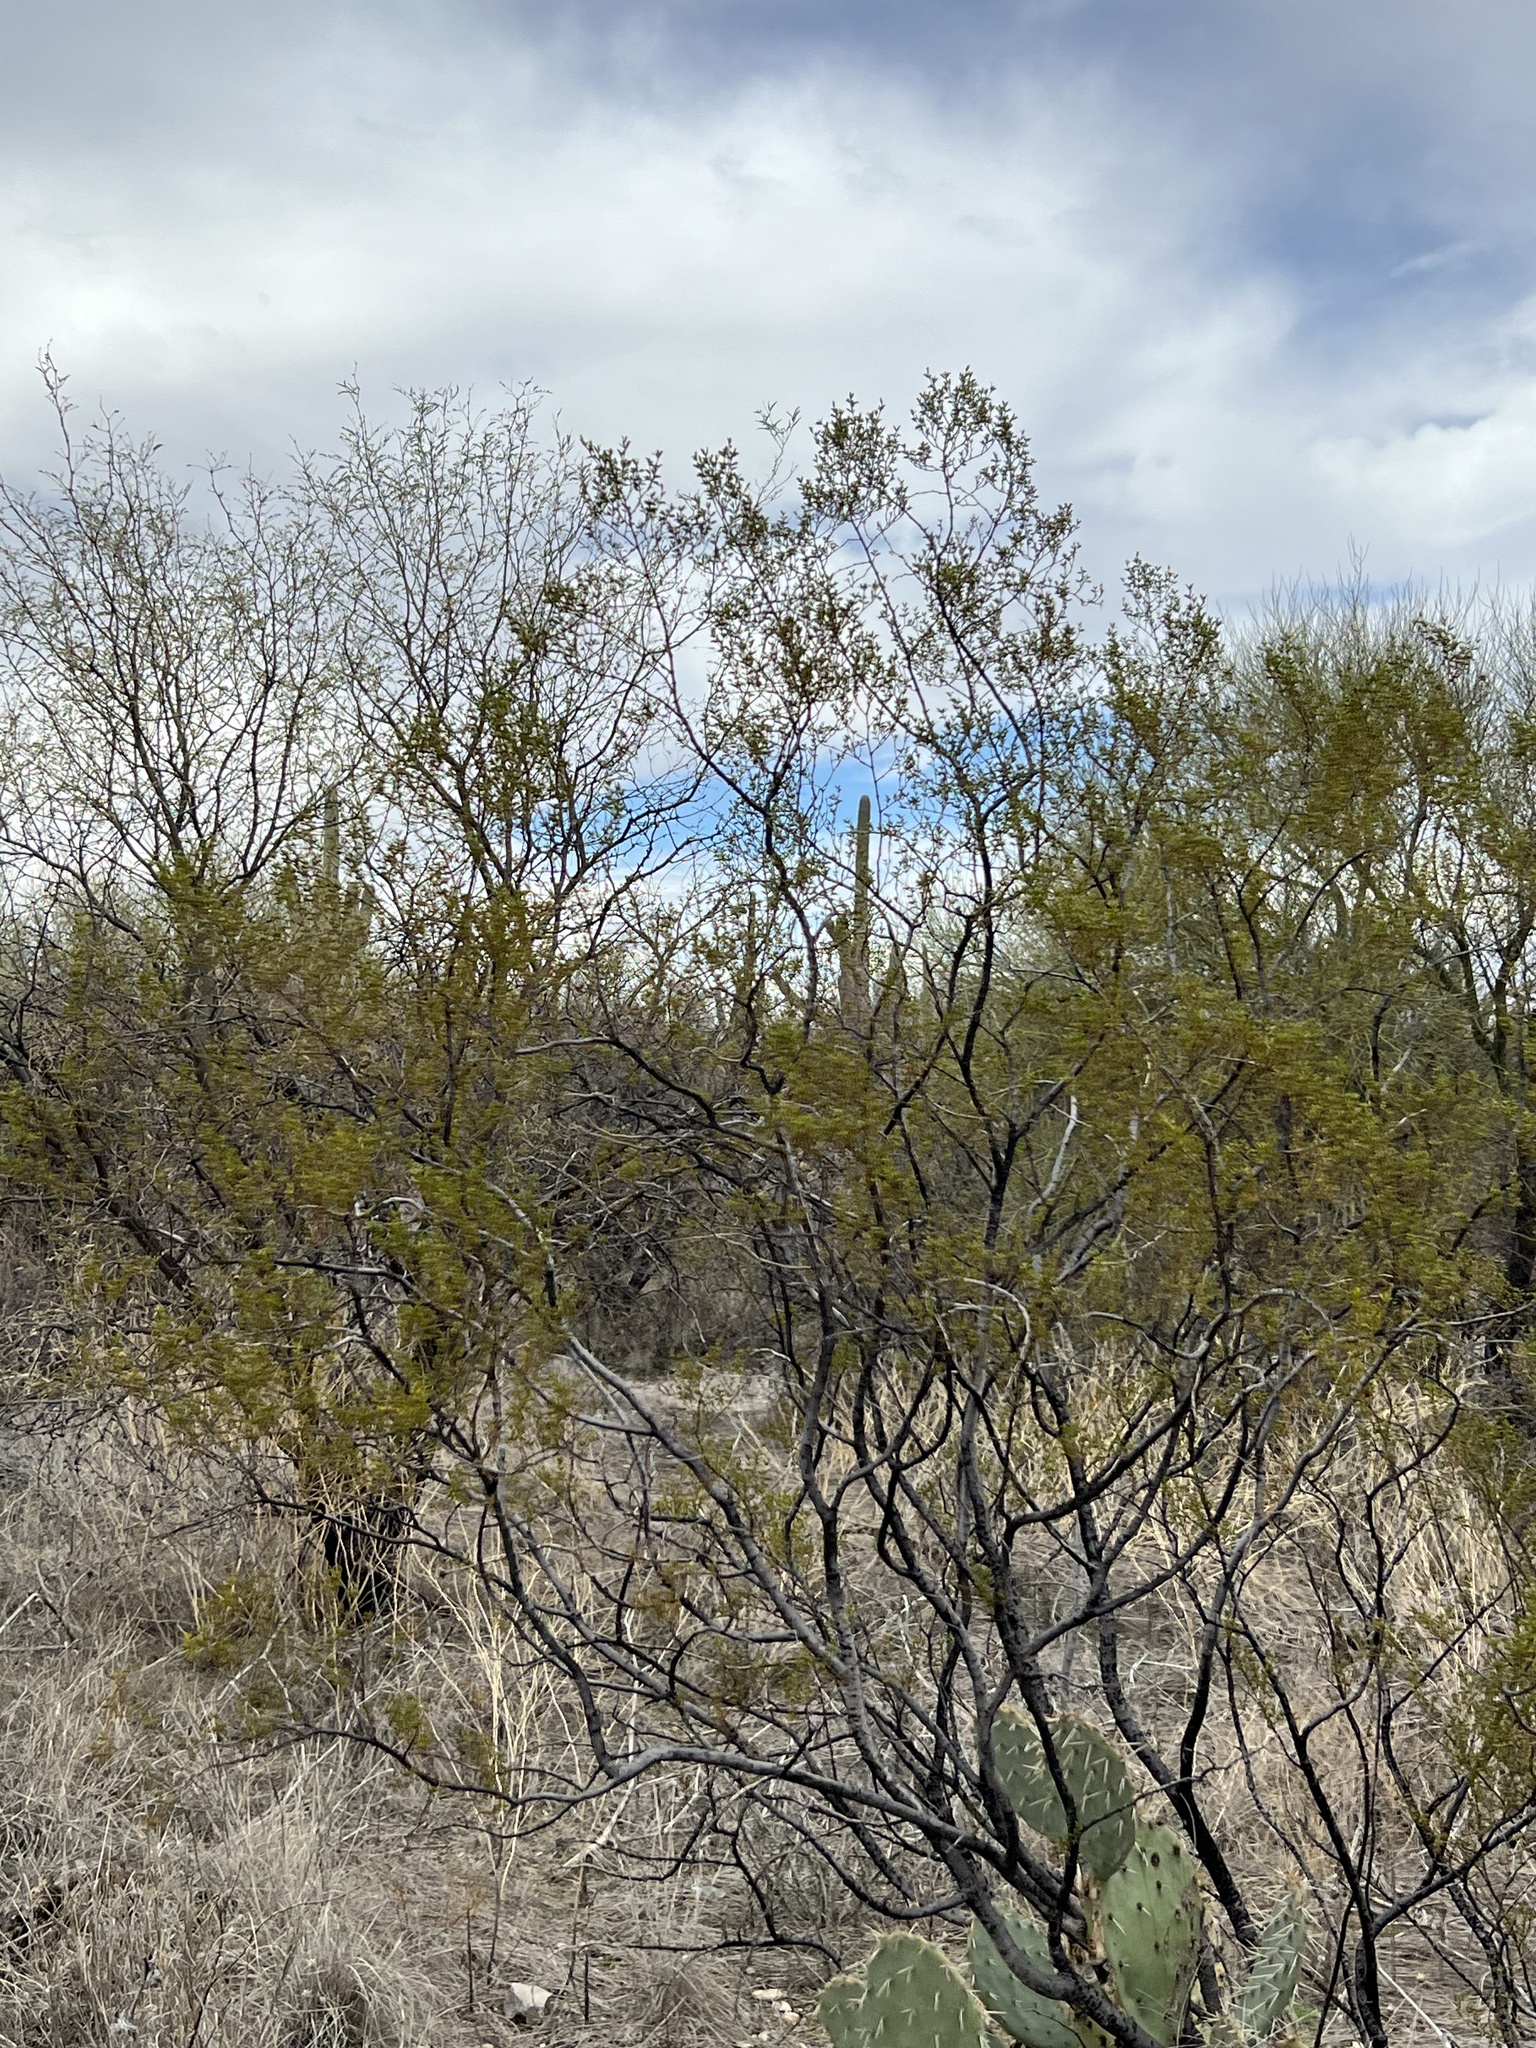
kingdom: Plantae
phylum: Tracheophyta
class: Magnoliopsida
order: Zygophyllales
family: Zygophyllaceae
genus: Larrea
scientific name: Larrea tridentata
